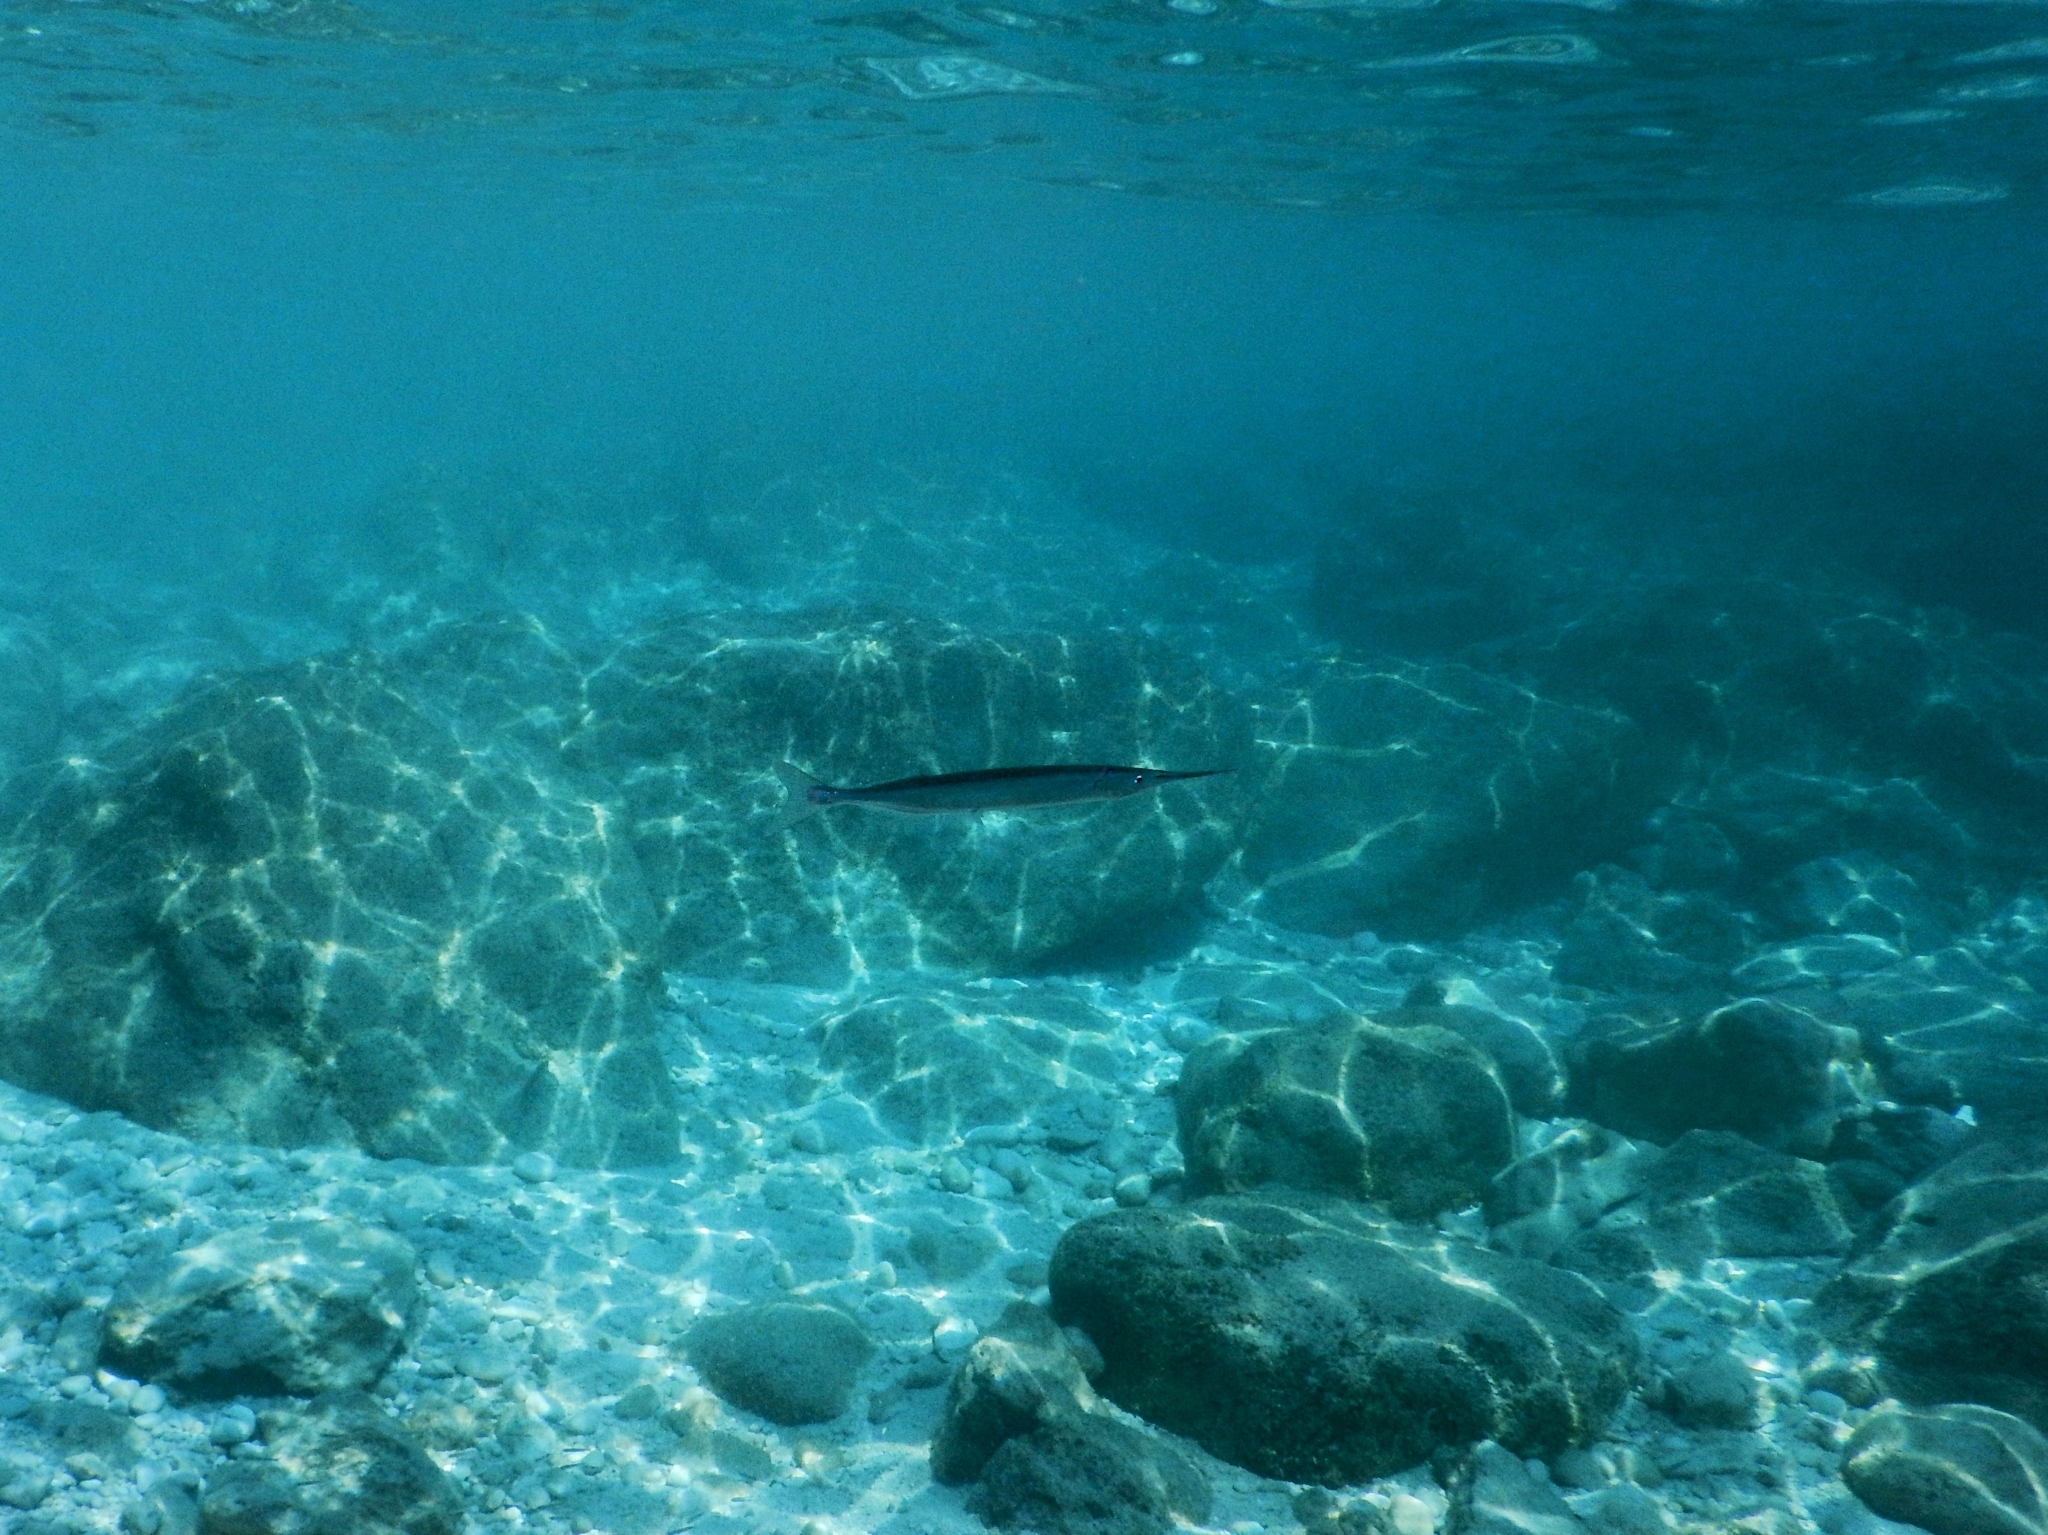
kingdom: Animalia
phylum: Chordata
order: Beloniformes
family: Belonidae
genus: Belone
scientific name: Belone
